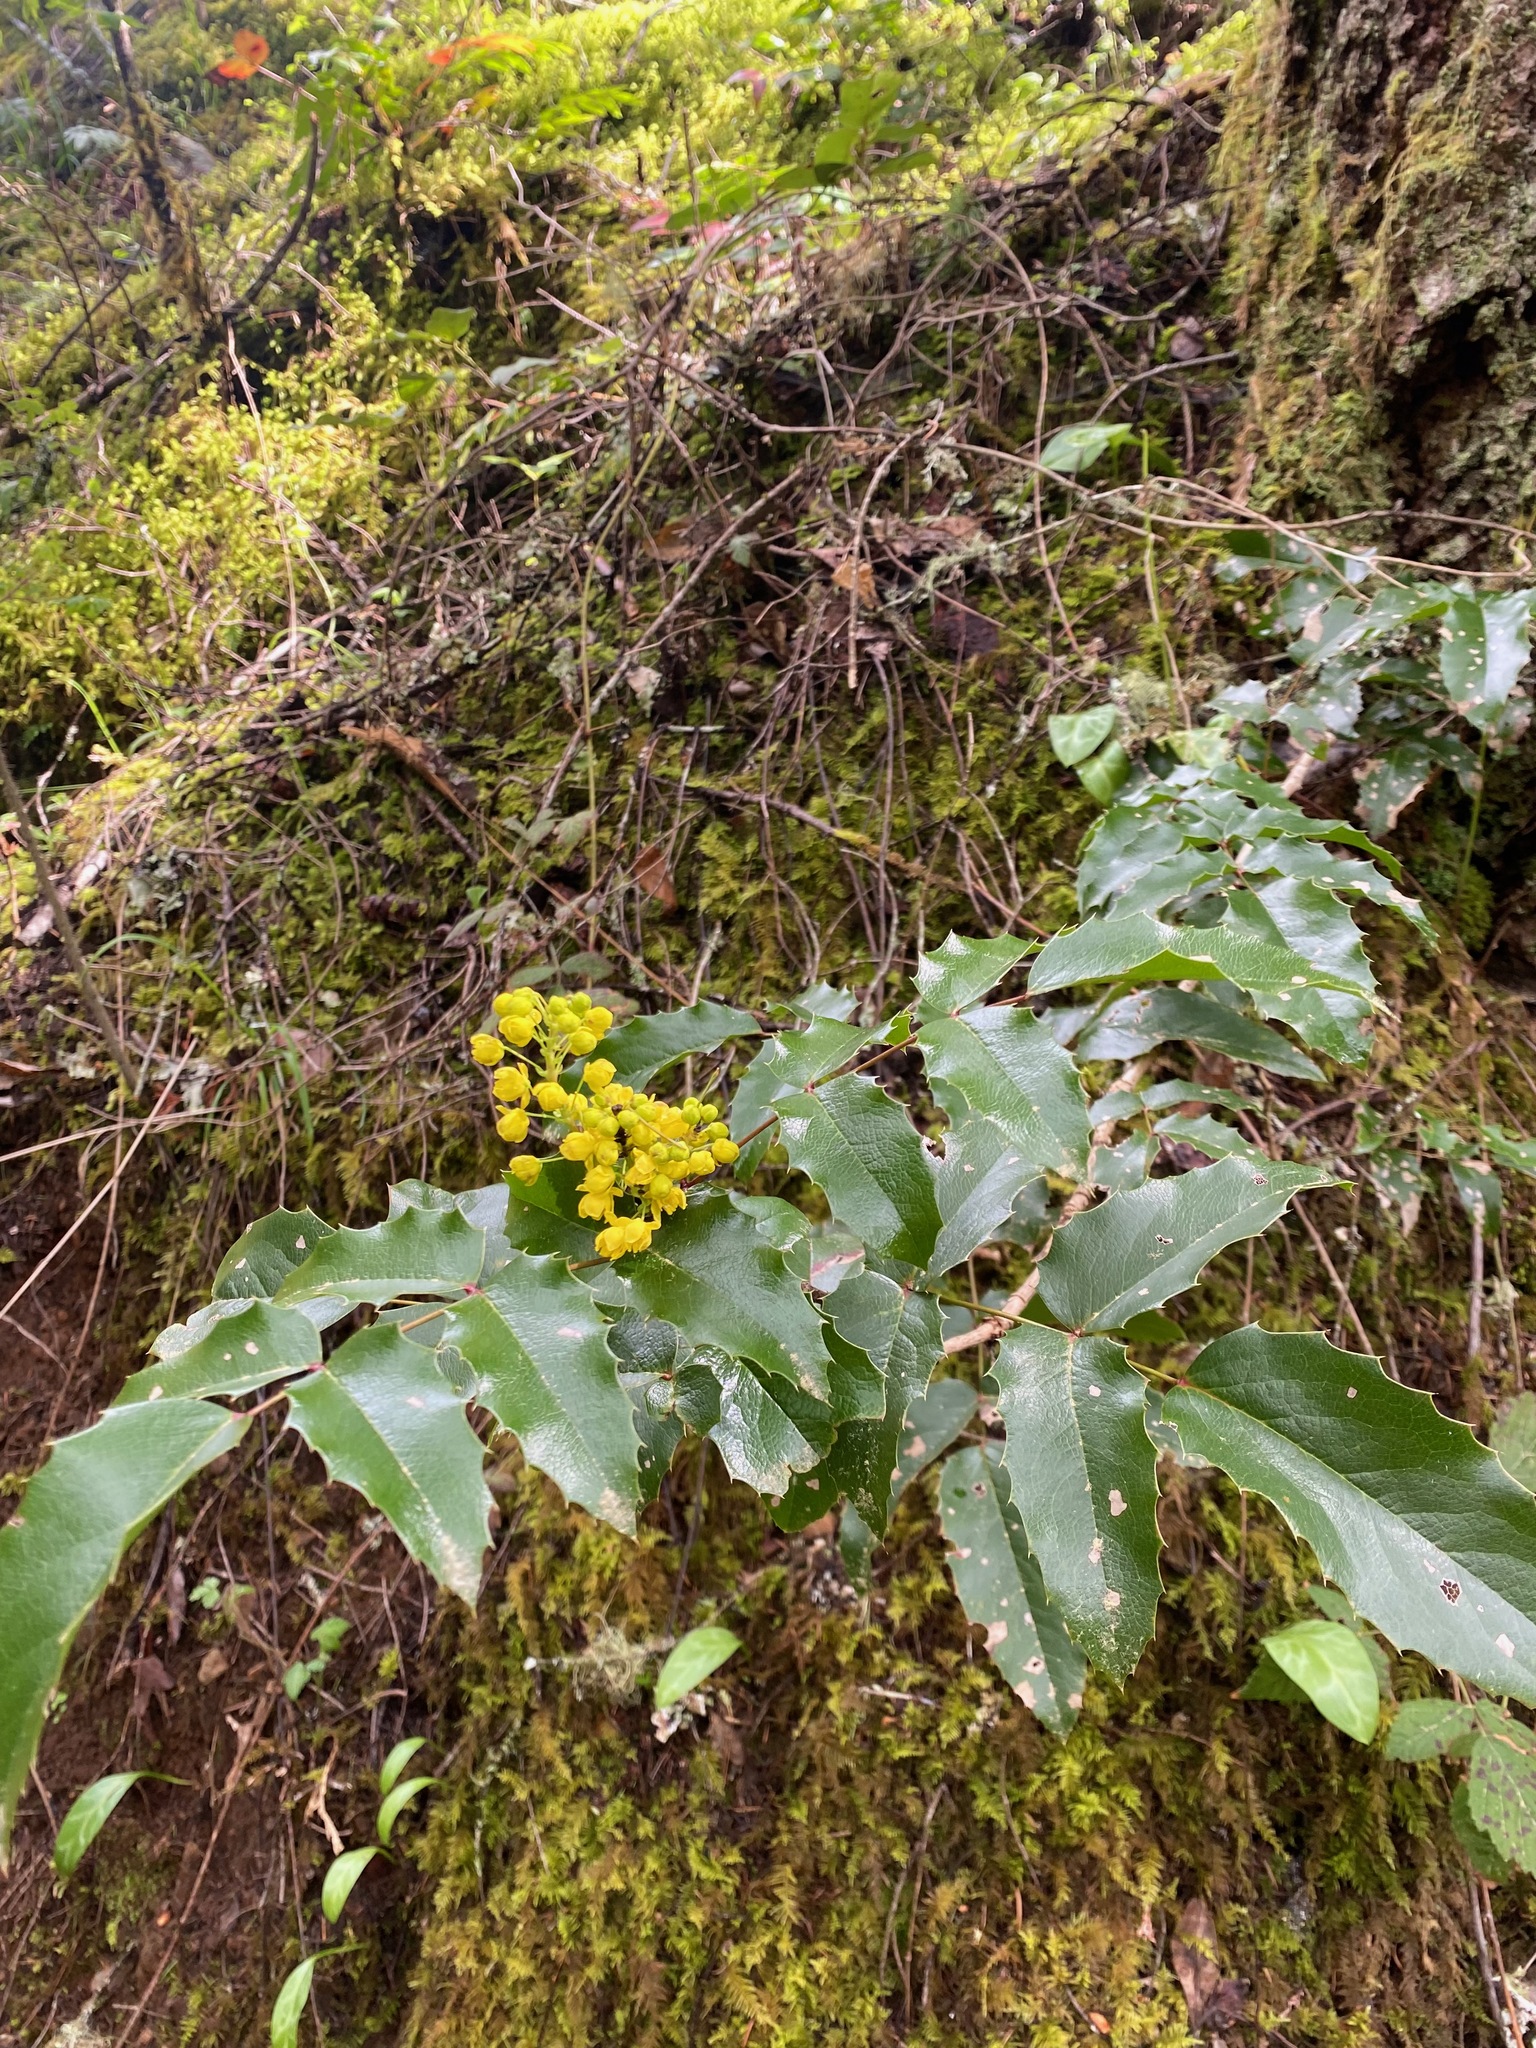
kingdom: Plantae
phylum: Tracheophyta
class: Magnoliopsida
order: Ranunculales
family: Berberidaceae
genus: Mahonia
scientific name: Mahonia aquifolium
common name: Oregon-grape
